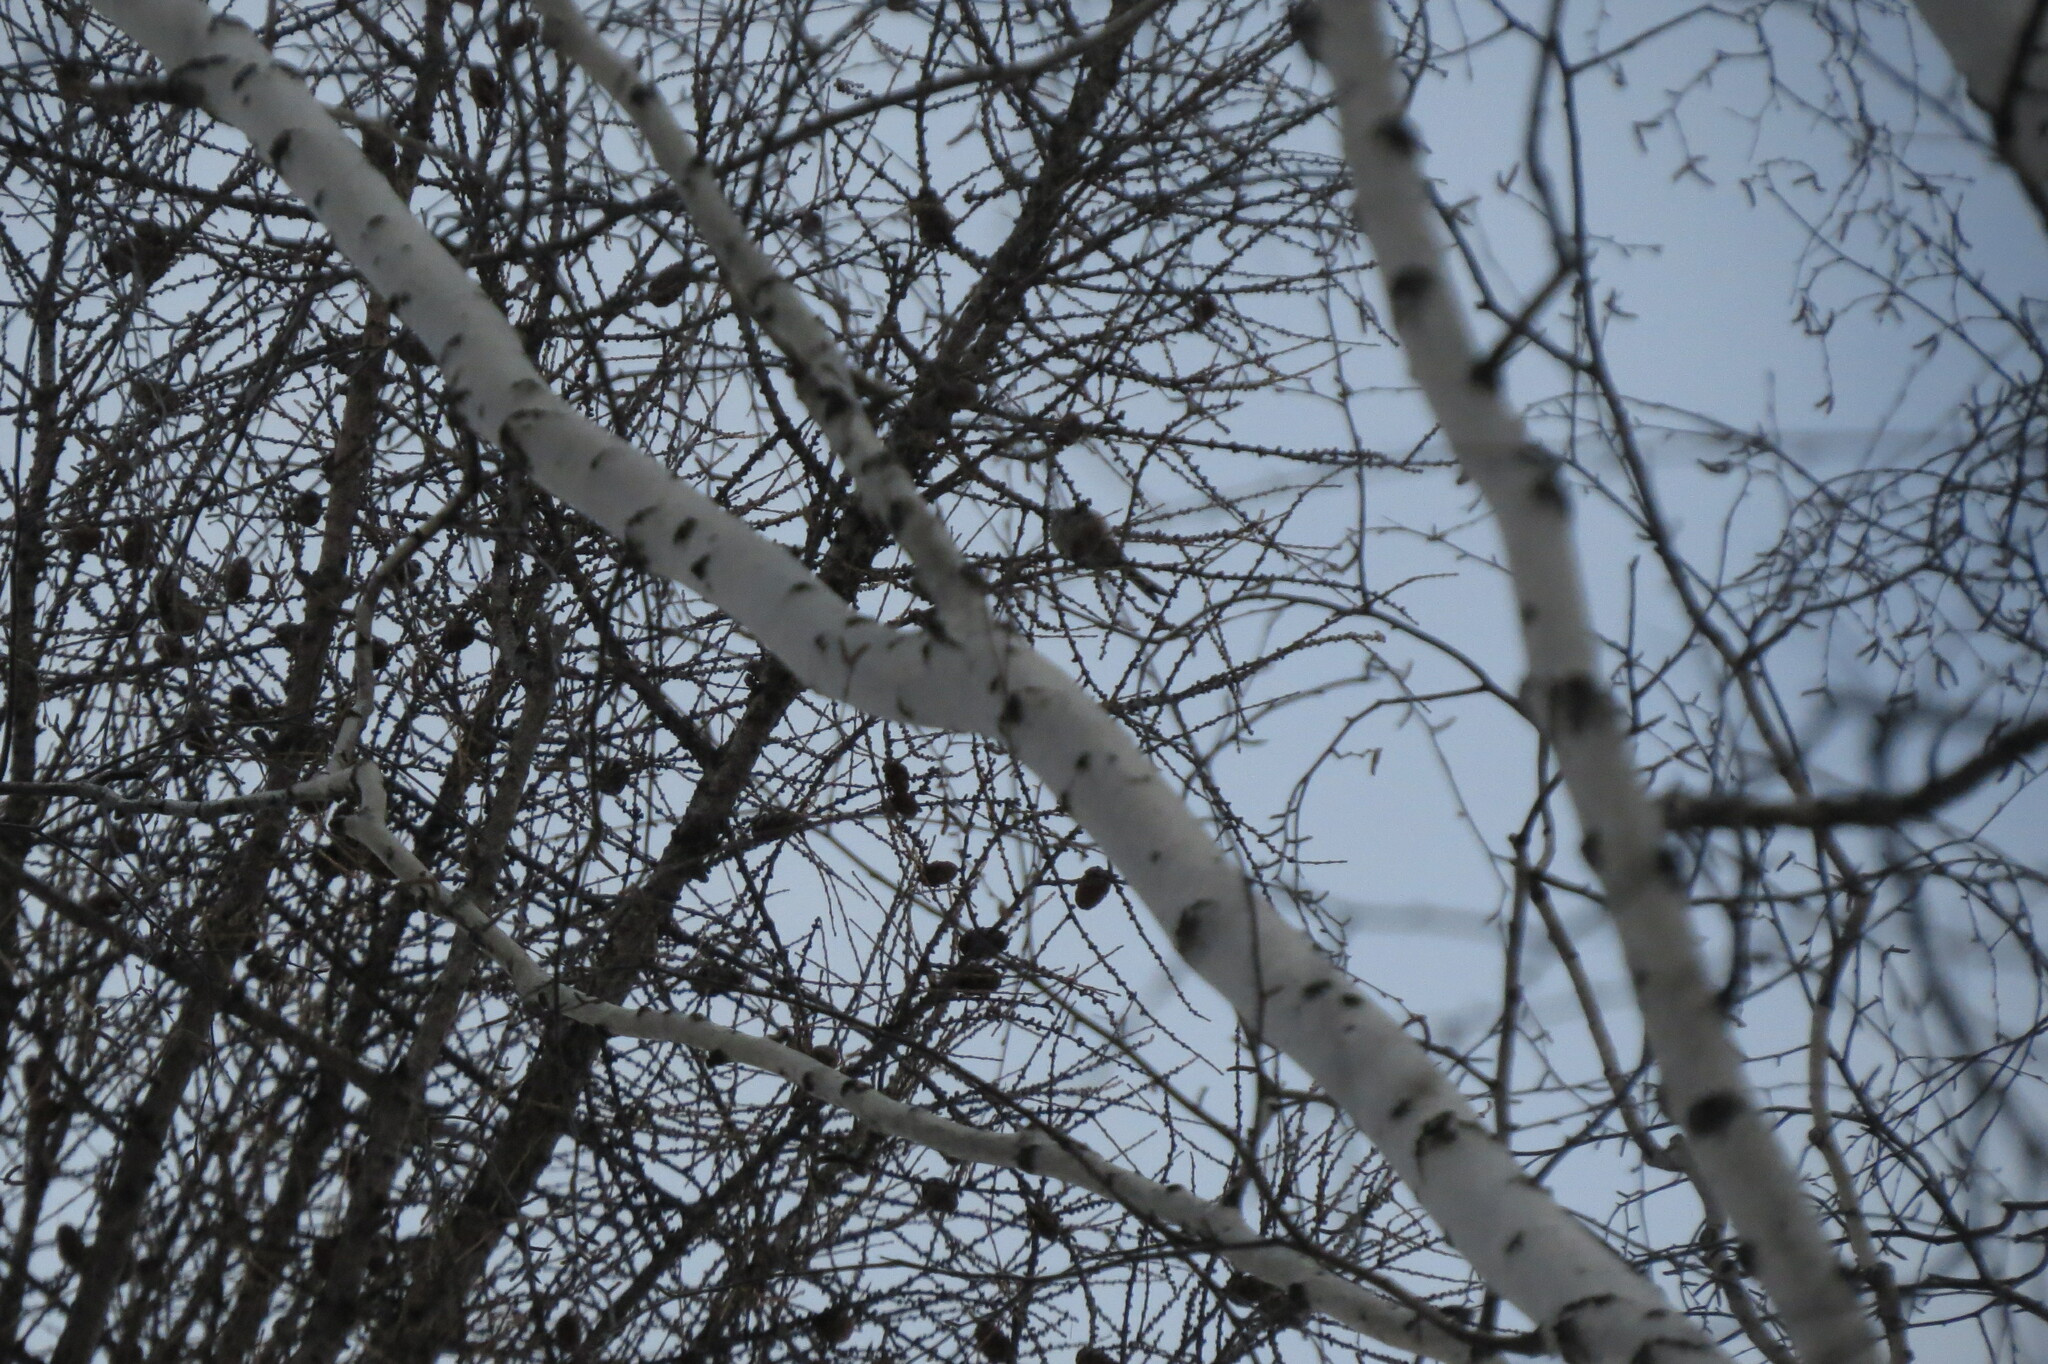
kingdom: Animalia
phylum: Chordata
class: Aves
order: Passeriformes
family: Aegithalidae
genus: Aegithalos
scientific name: Aegithalos caudatus
